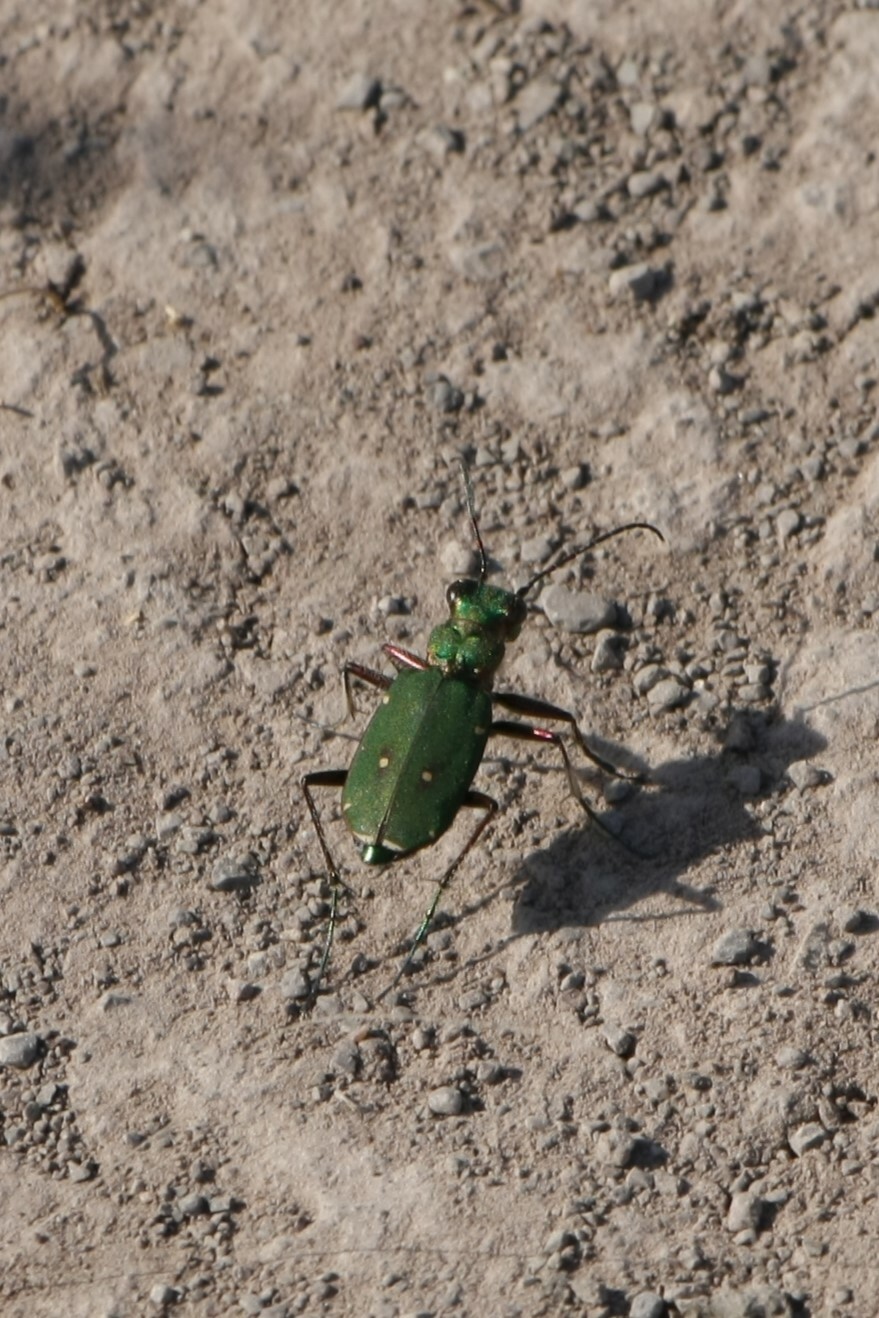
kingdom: Animalia
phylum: Arthropoda
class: Insecta
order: Coleoptera
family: Carabidae
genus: Cicindela
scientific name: Cicindela campestris
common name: Common tiger beetle
